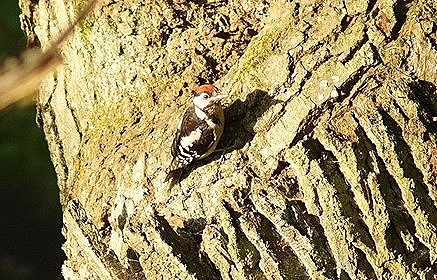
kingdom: Animalia
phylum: Chordata
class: Aves
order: Piciformes
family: Picidae
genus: Dendrocopos
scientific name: Dendrocopos major
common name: Great spotted woodpecker
